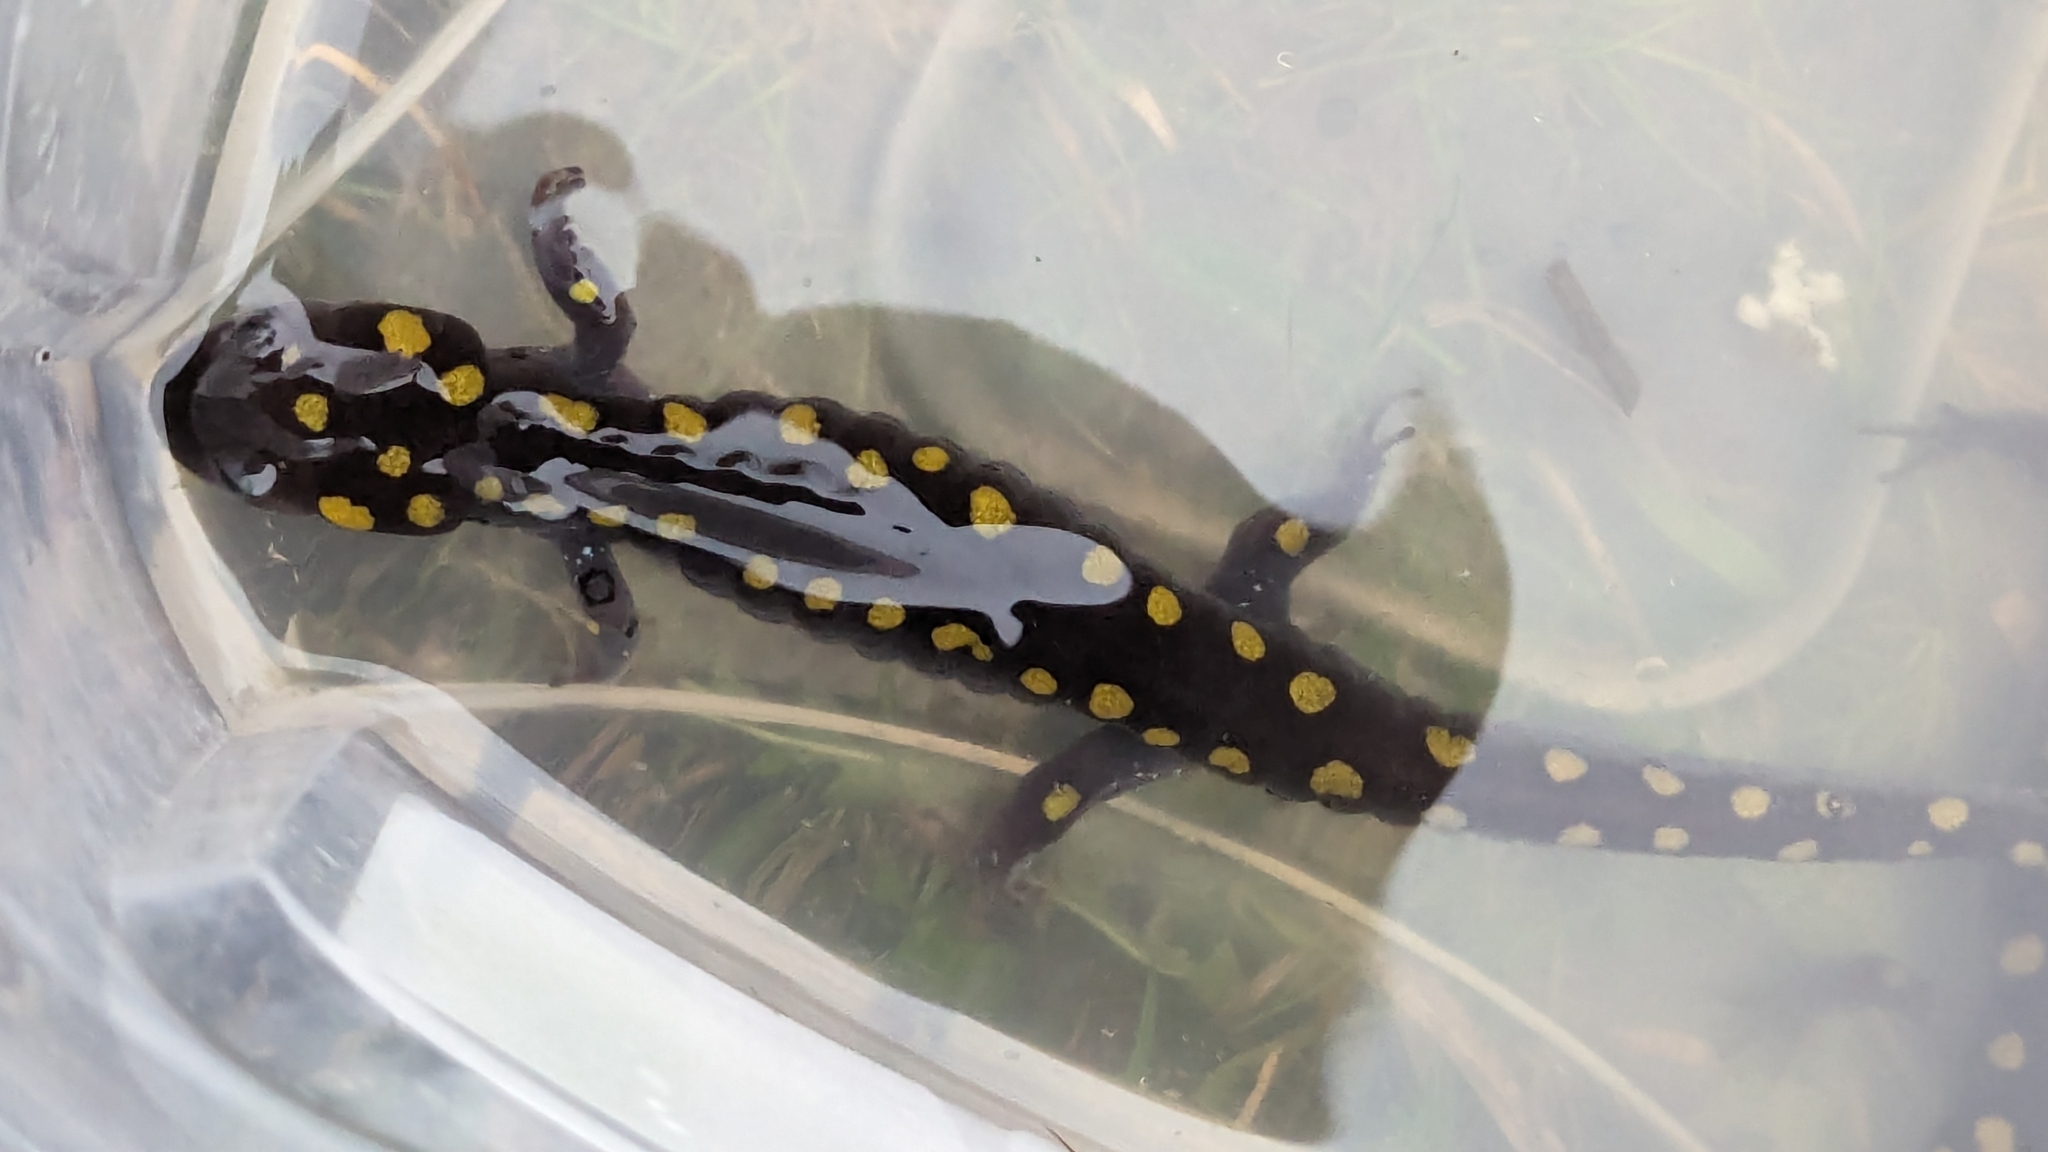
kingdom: Animalia
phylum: Chordata
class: Amphibia
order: Caudata
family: Ambystomatidae
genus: Ambystoma
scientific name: Ambystoma maculatum
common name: Spotted salamander
